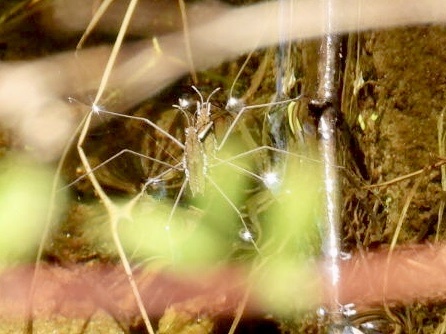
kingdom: Animalia
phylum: Arthropoda
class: Insecta
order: Hemiptera
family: Gerridae
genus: Aquarius
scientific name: Aquarius remigis
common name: Common water strider
